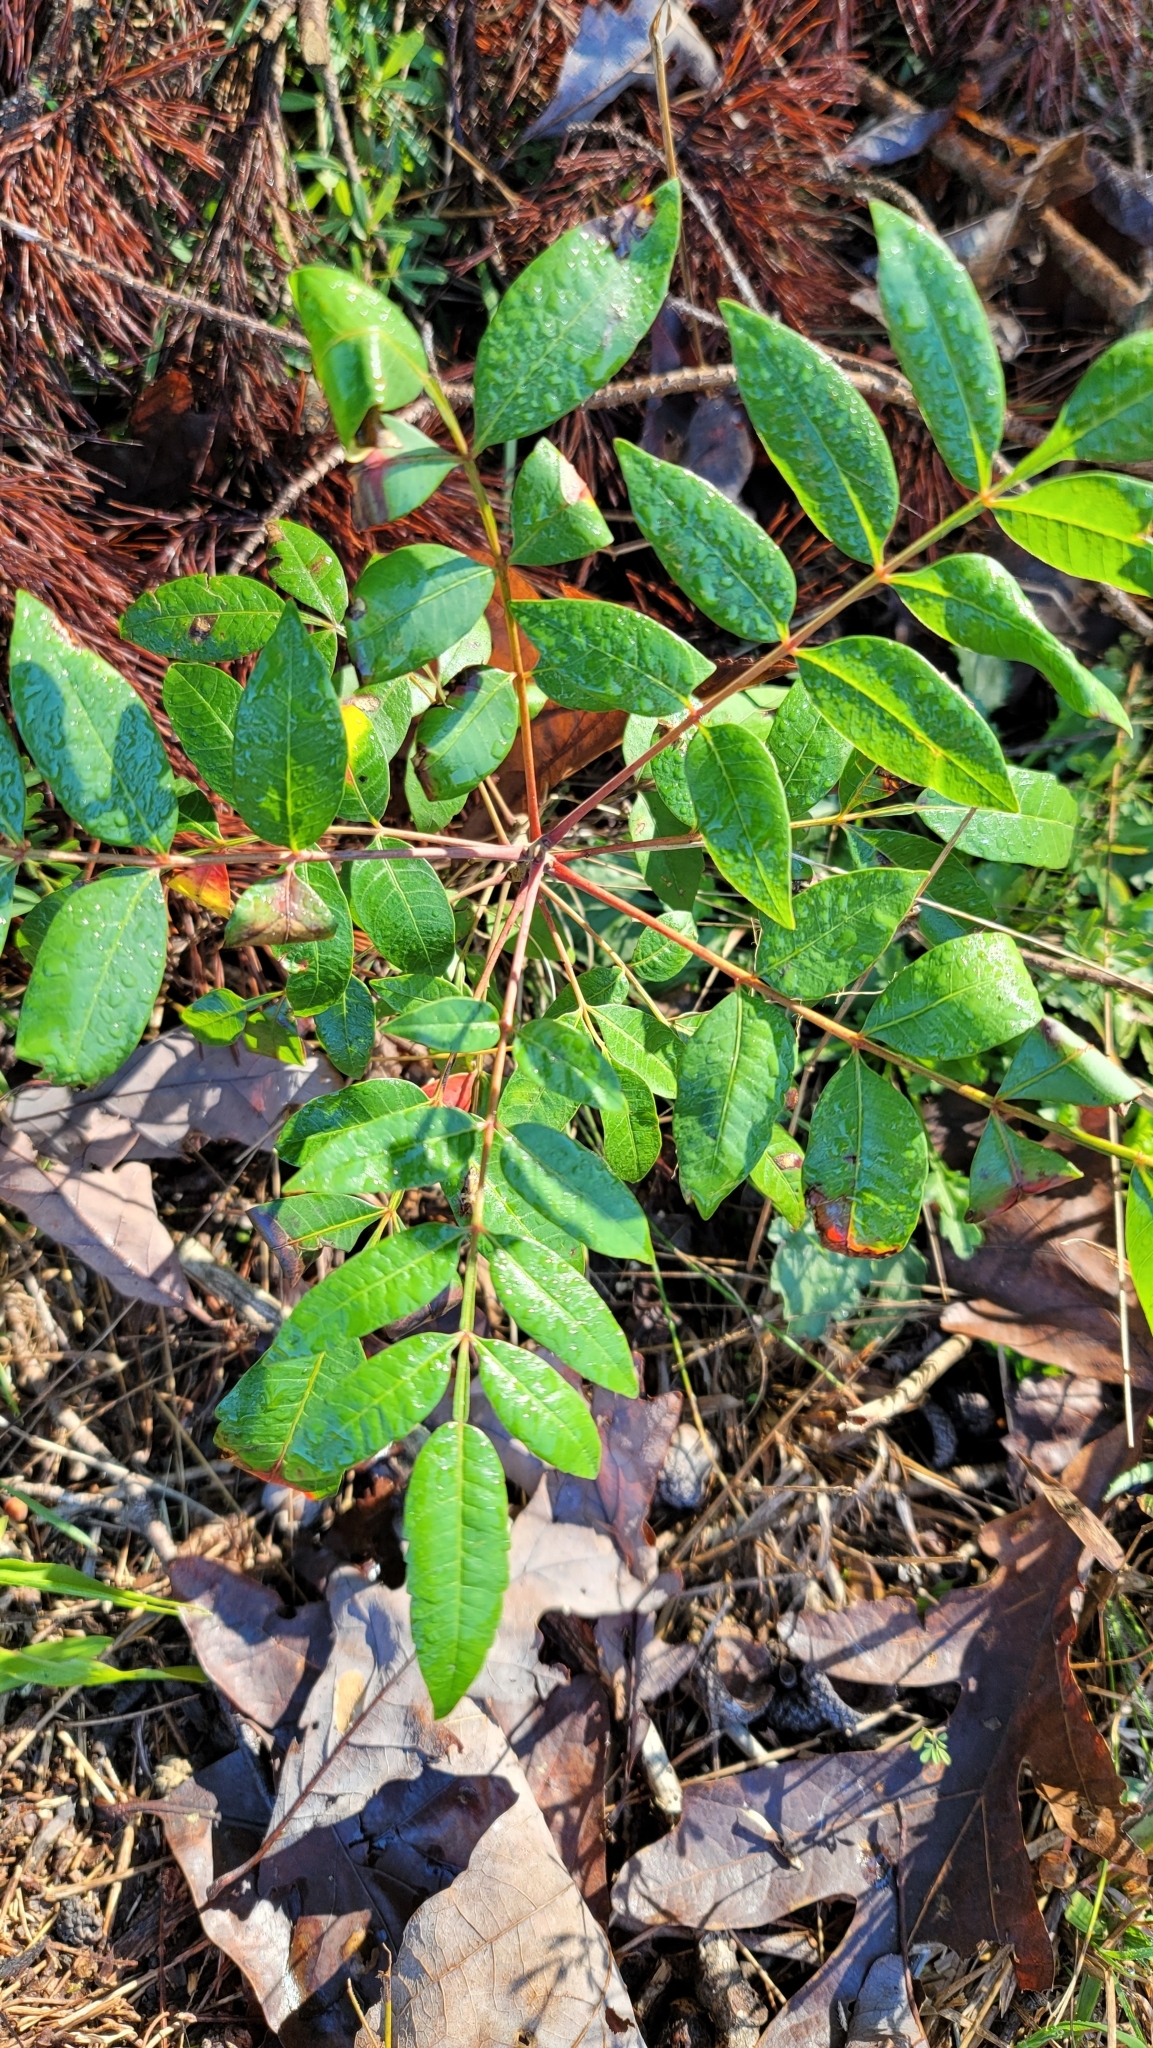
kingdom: Plantae
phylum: Tracheophyta
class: Magnoliopsida
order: Sapindales
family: Anacardiaceae
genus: Rhus
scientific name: Rhus copallina
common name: Shining sumac
